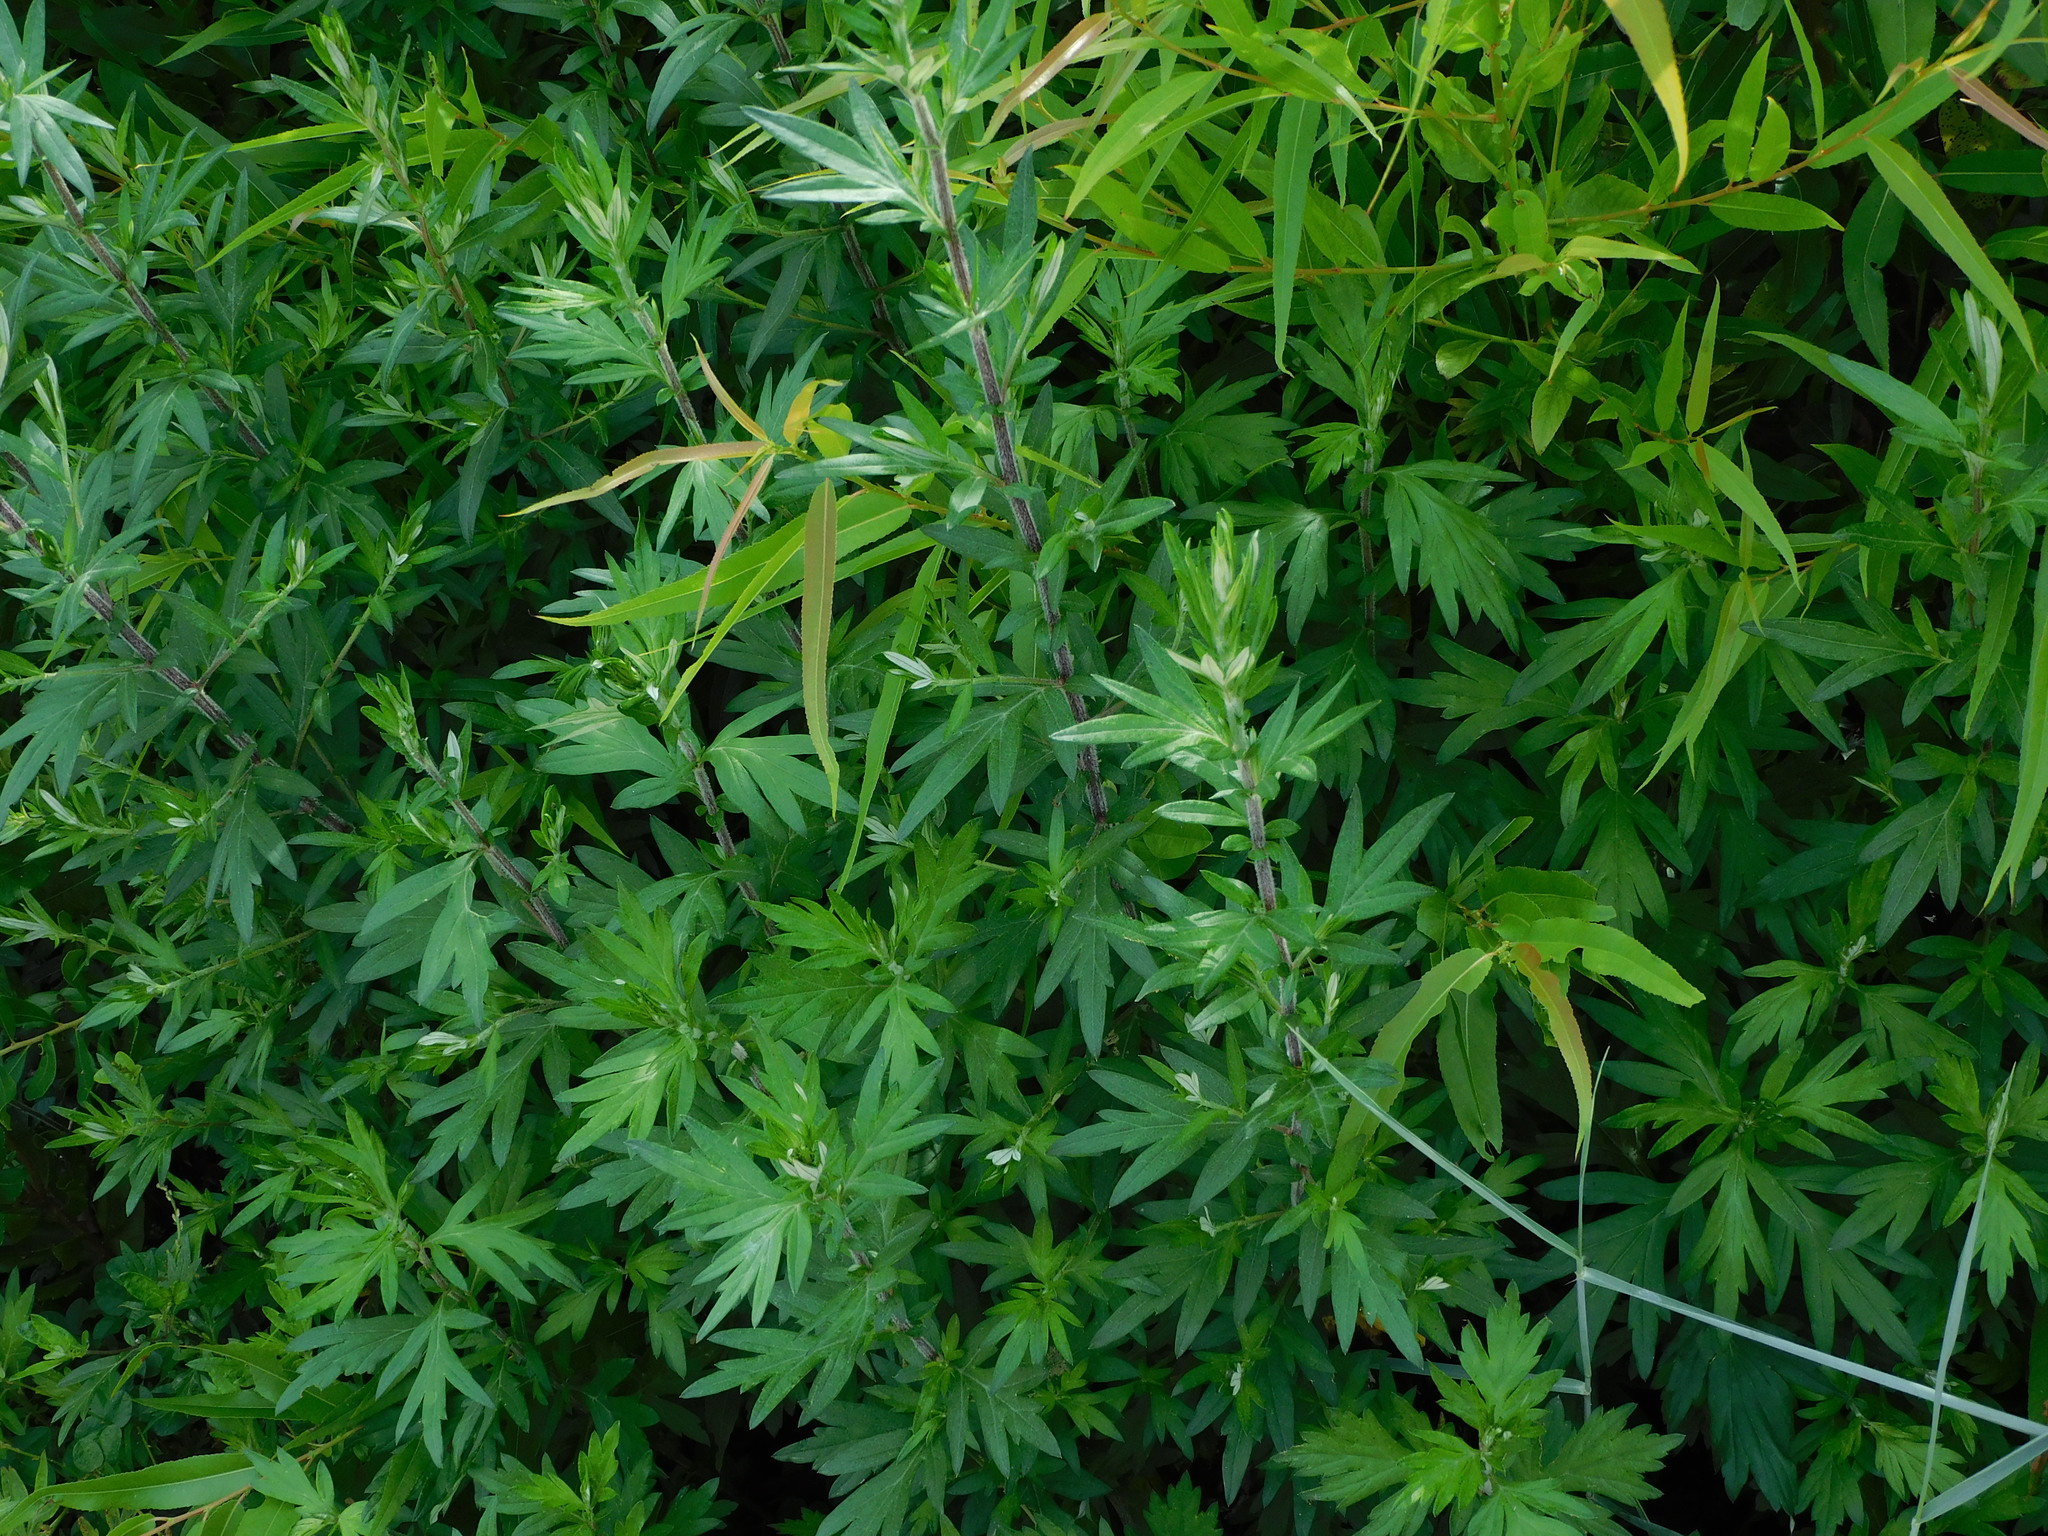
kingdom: Plantae
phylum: Tracheophyta
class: Magnoliopsida
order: Asterales
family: Asteraceae
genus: Artemisia
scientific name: Artemisia vulgaris
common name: Mugwort
